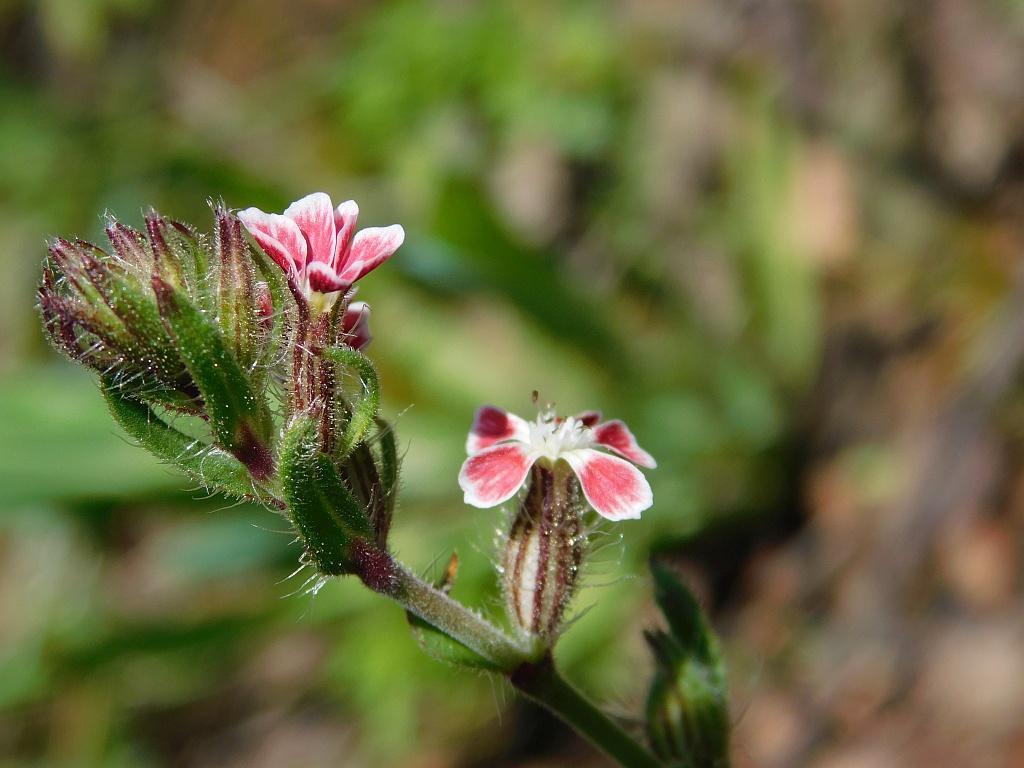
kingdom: Plantae
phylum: Tracheophyta
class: Magnoliopsida
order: Caryophyllales
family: Caryophyllaceae
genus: Silene
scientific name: Silene gallica
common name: Small-flowered catchfly
